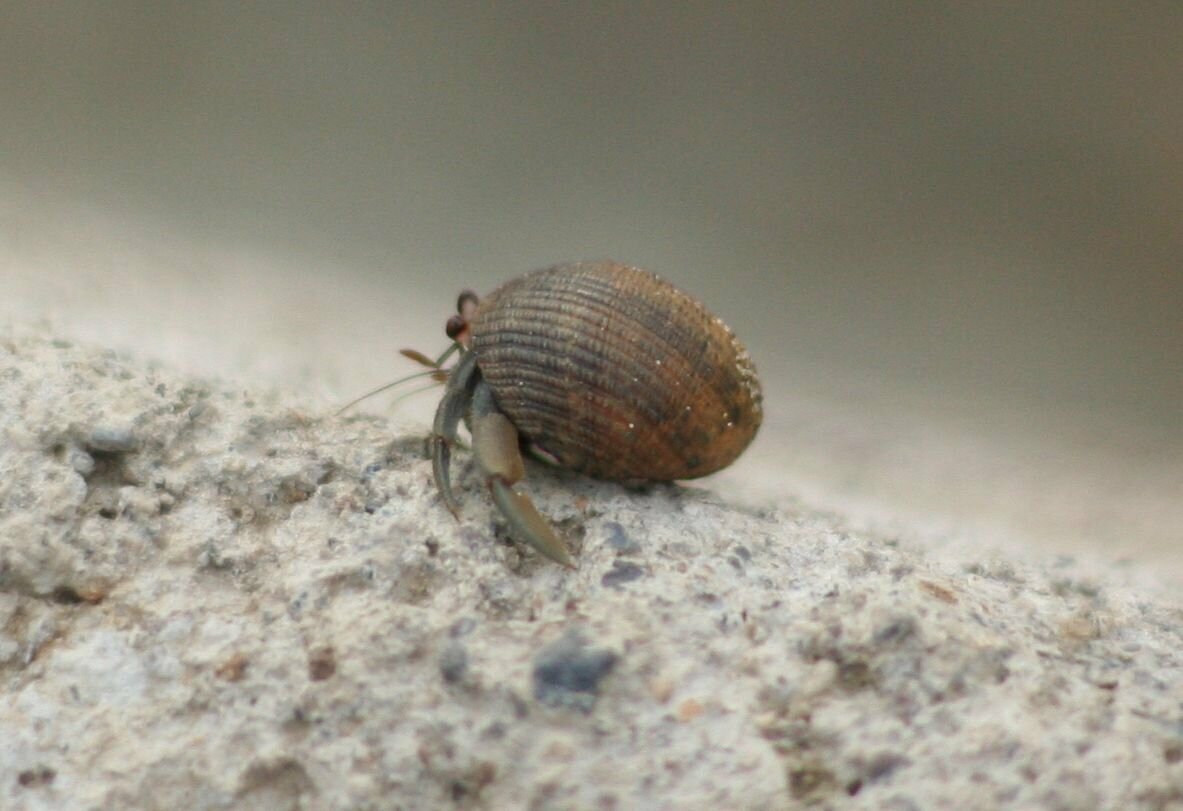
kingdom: Animalia
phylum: Arthropoda
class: Malacostraca
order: Decapoda
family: Coenobitidae
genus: Coenobita
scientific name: Coenobita compressus
